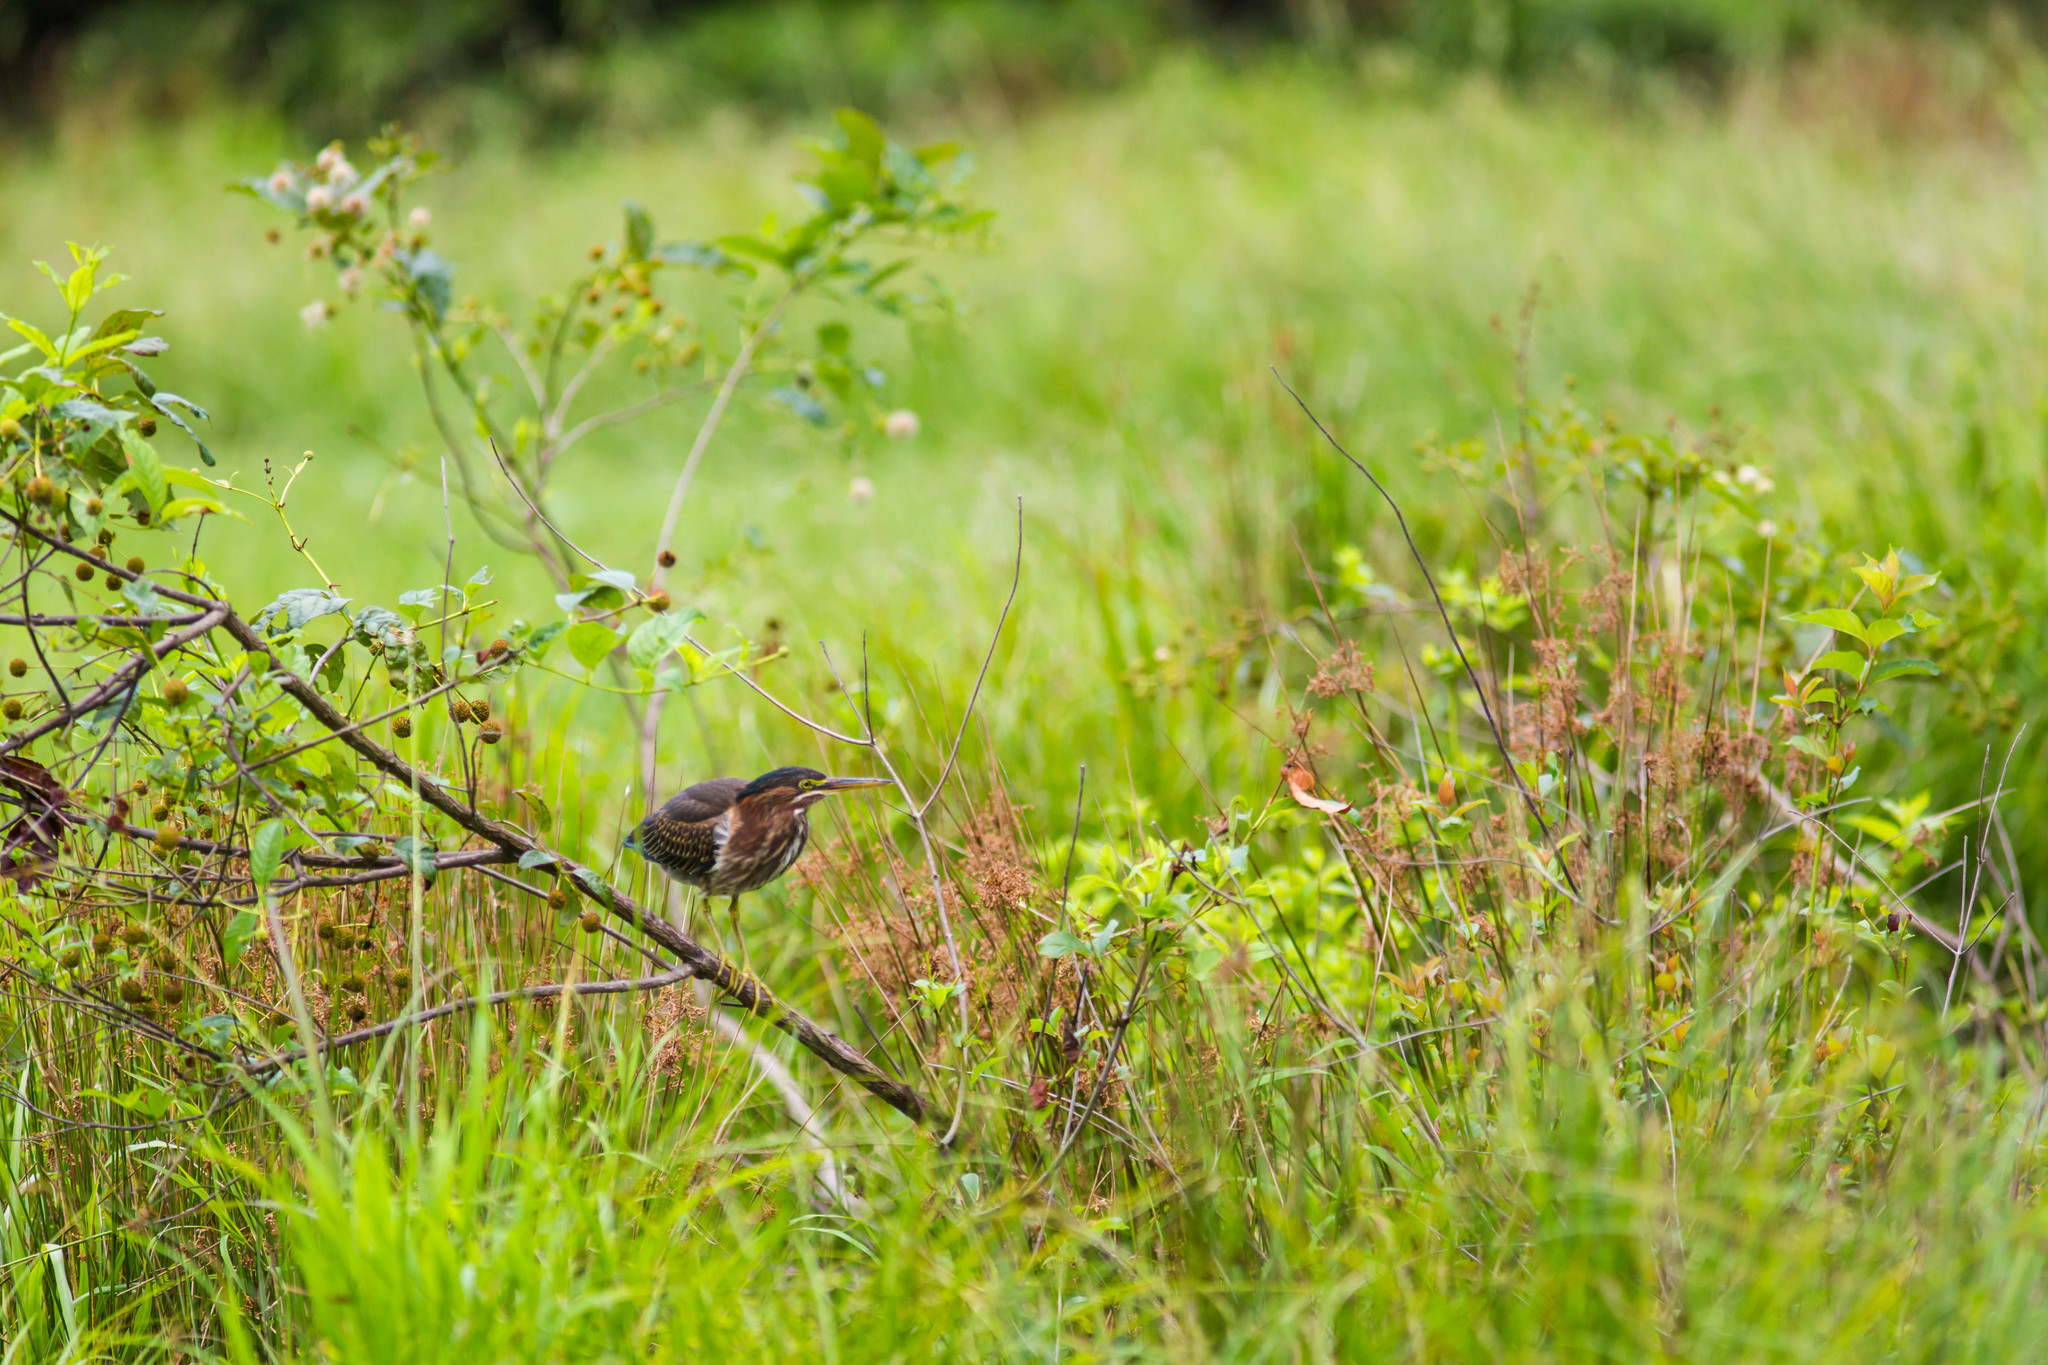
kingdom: Animalia
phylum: Chordata
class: Aves
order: Pelecaniformes
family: Ardeidae
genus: Butorides
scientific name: Butorides virescens
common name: Green heron
